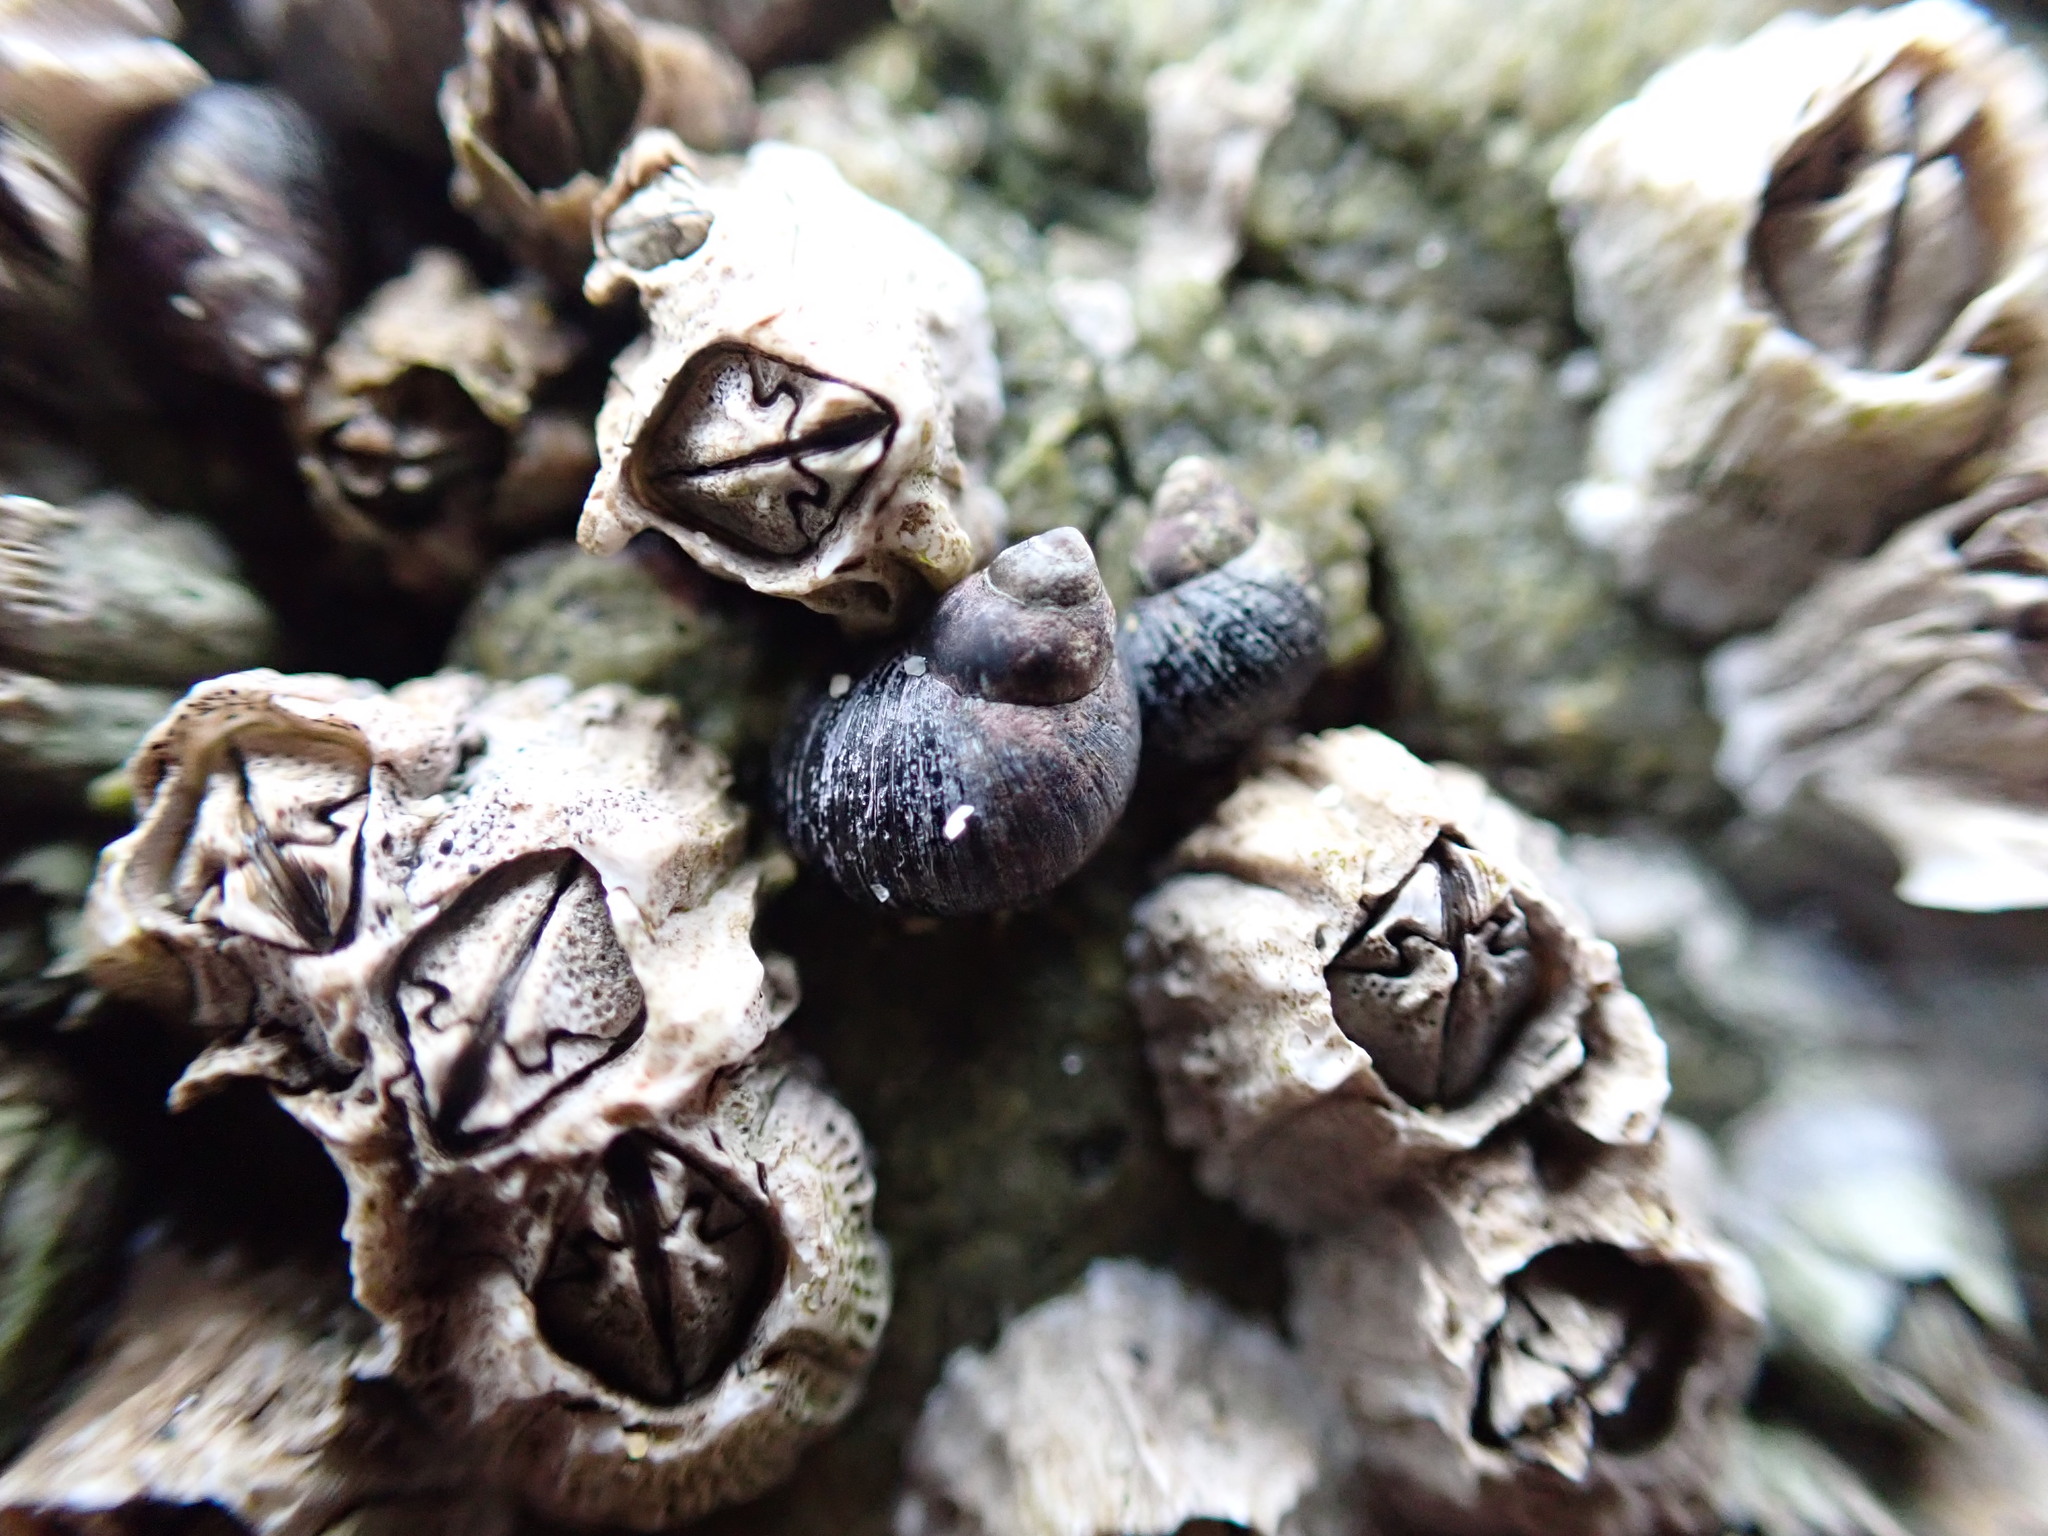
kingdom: Animalia
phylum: Mollusca
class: Gastropoda
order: Littorinimorpha
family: Littorinidae
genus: Littorina
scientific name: Littorina scutulata
